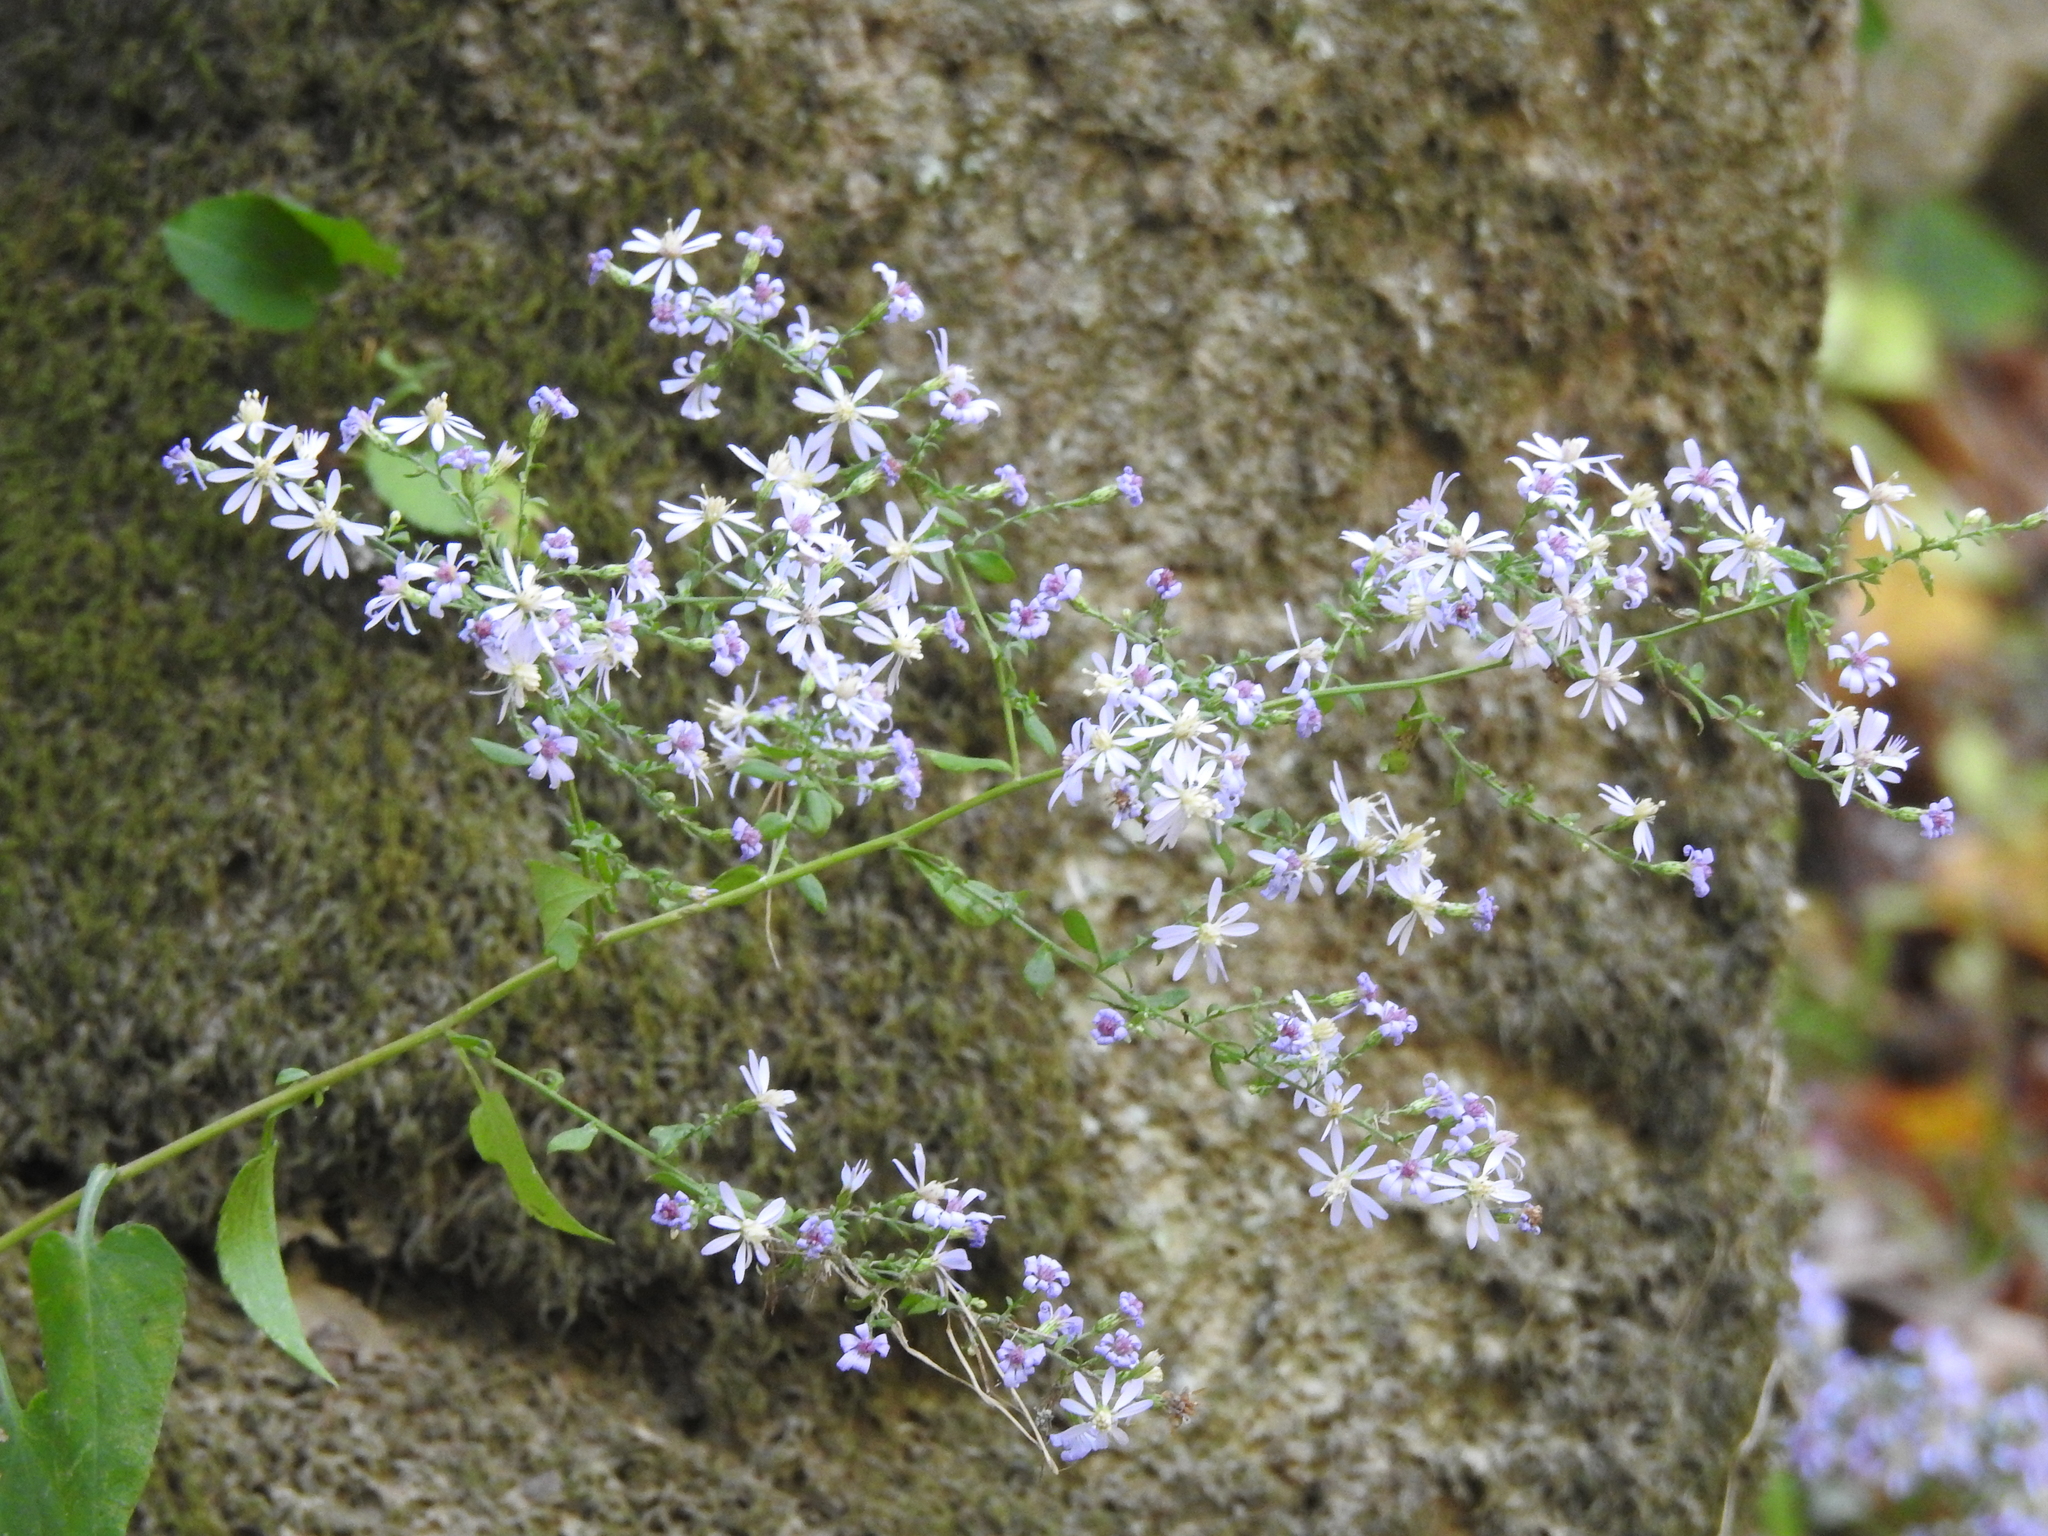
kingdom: Plantae
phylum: Tracheophyta
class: Magnoliopsida
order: Asterales
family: Asteraceae
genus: Symphyotrichum
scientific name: Symphyotrichum cordifolium
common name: Beeweed
